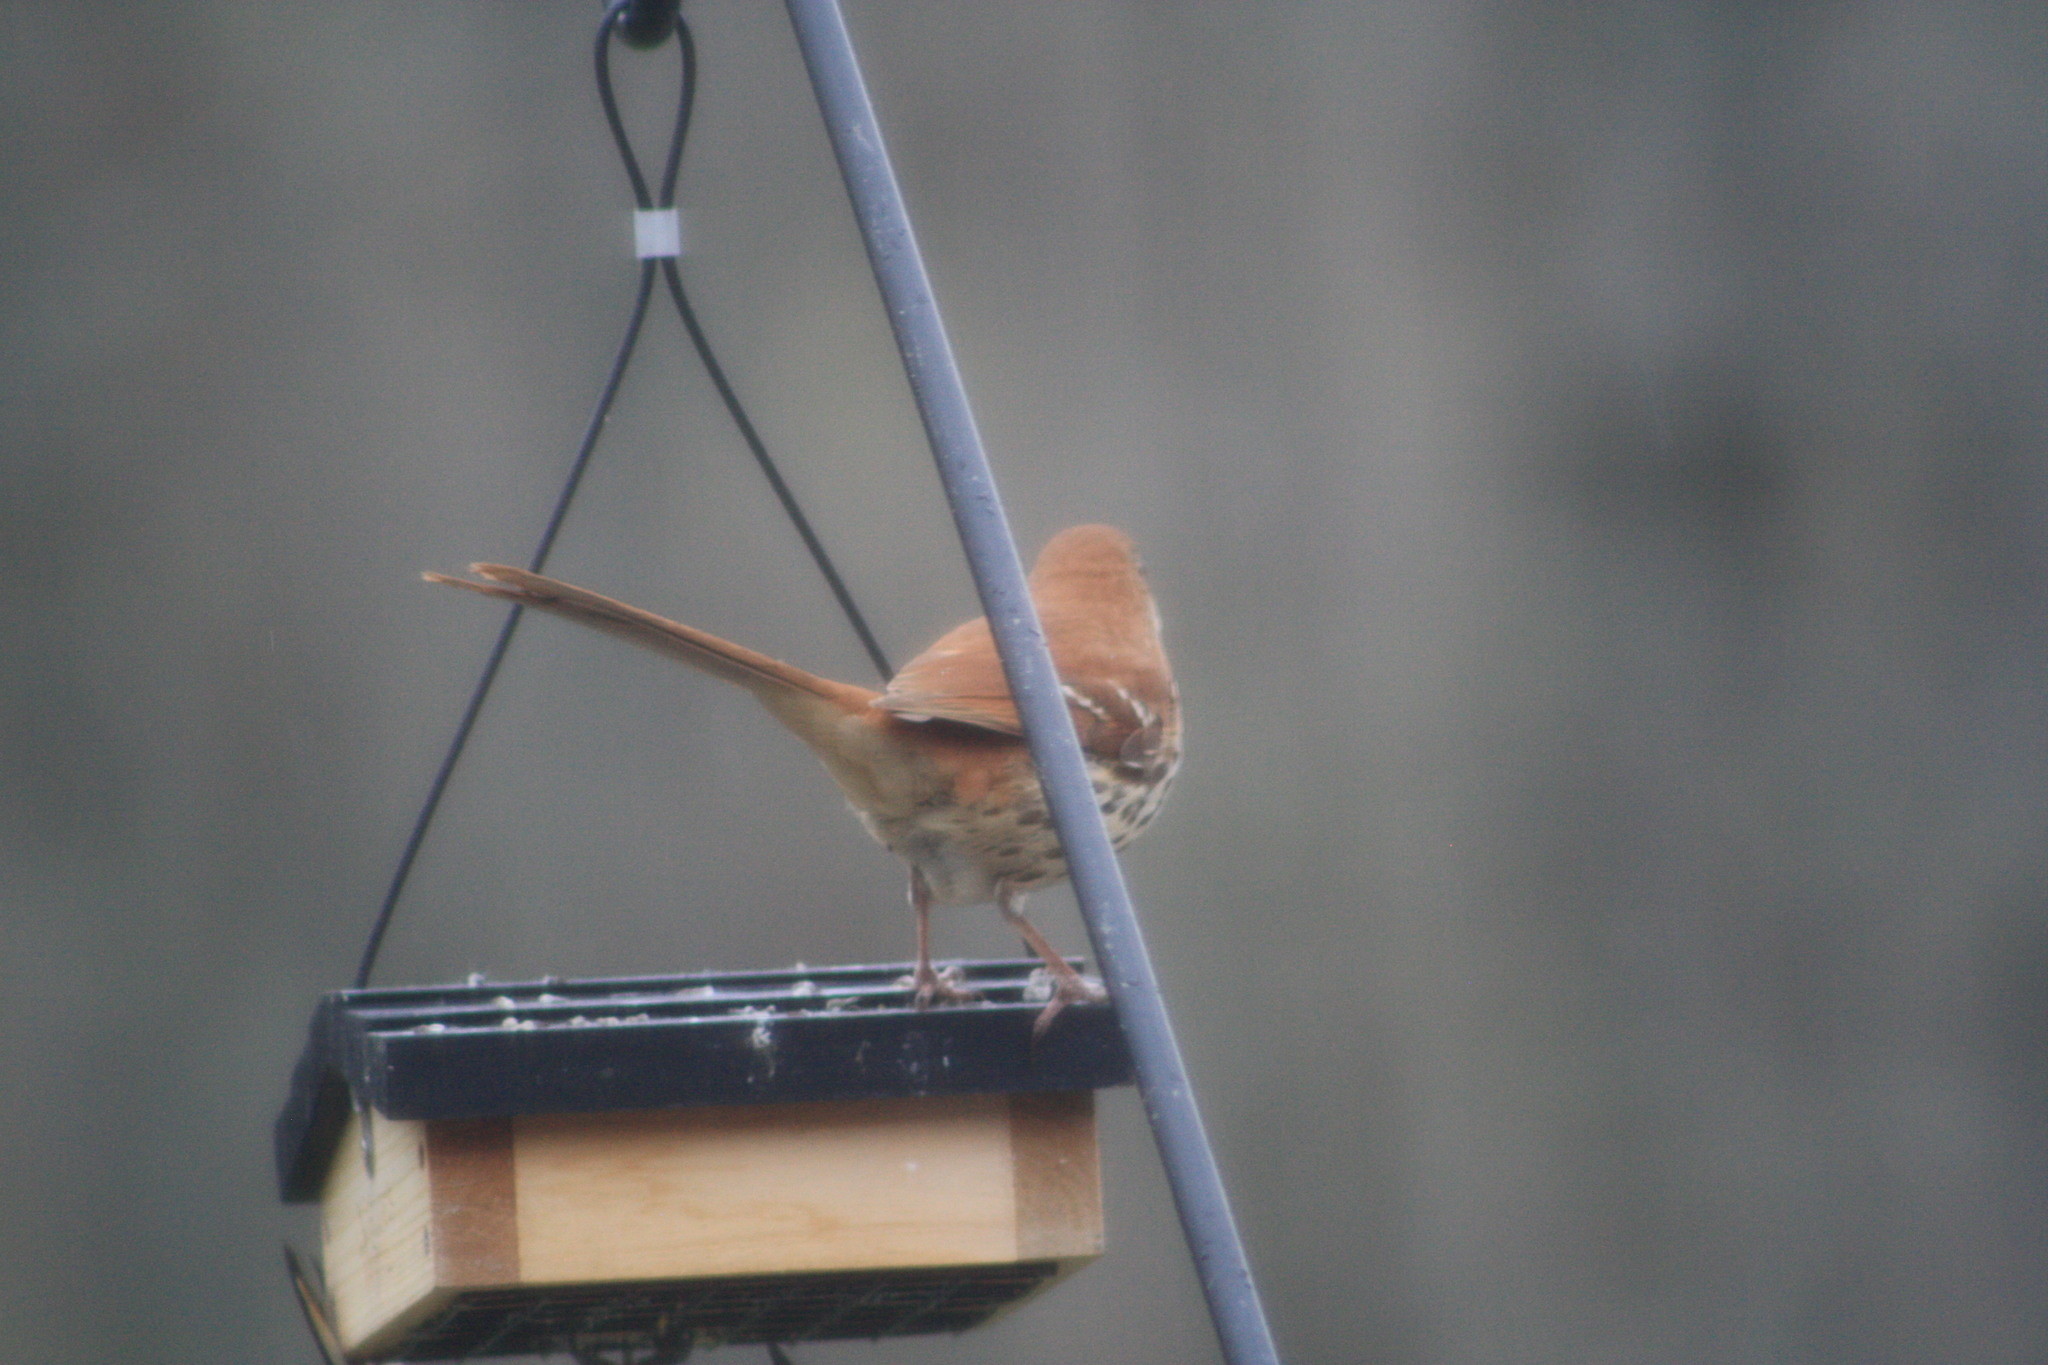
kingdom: Animalia
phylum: Chordata
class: Aves
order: Passeriformes
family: Mimidae
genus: Toxostoma
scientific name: Toxostoma rufum
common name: Brown thrasher
